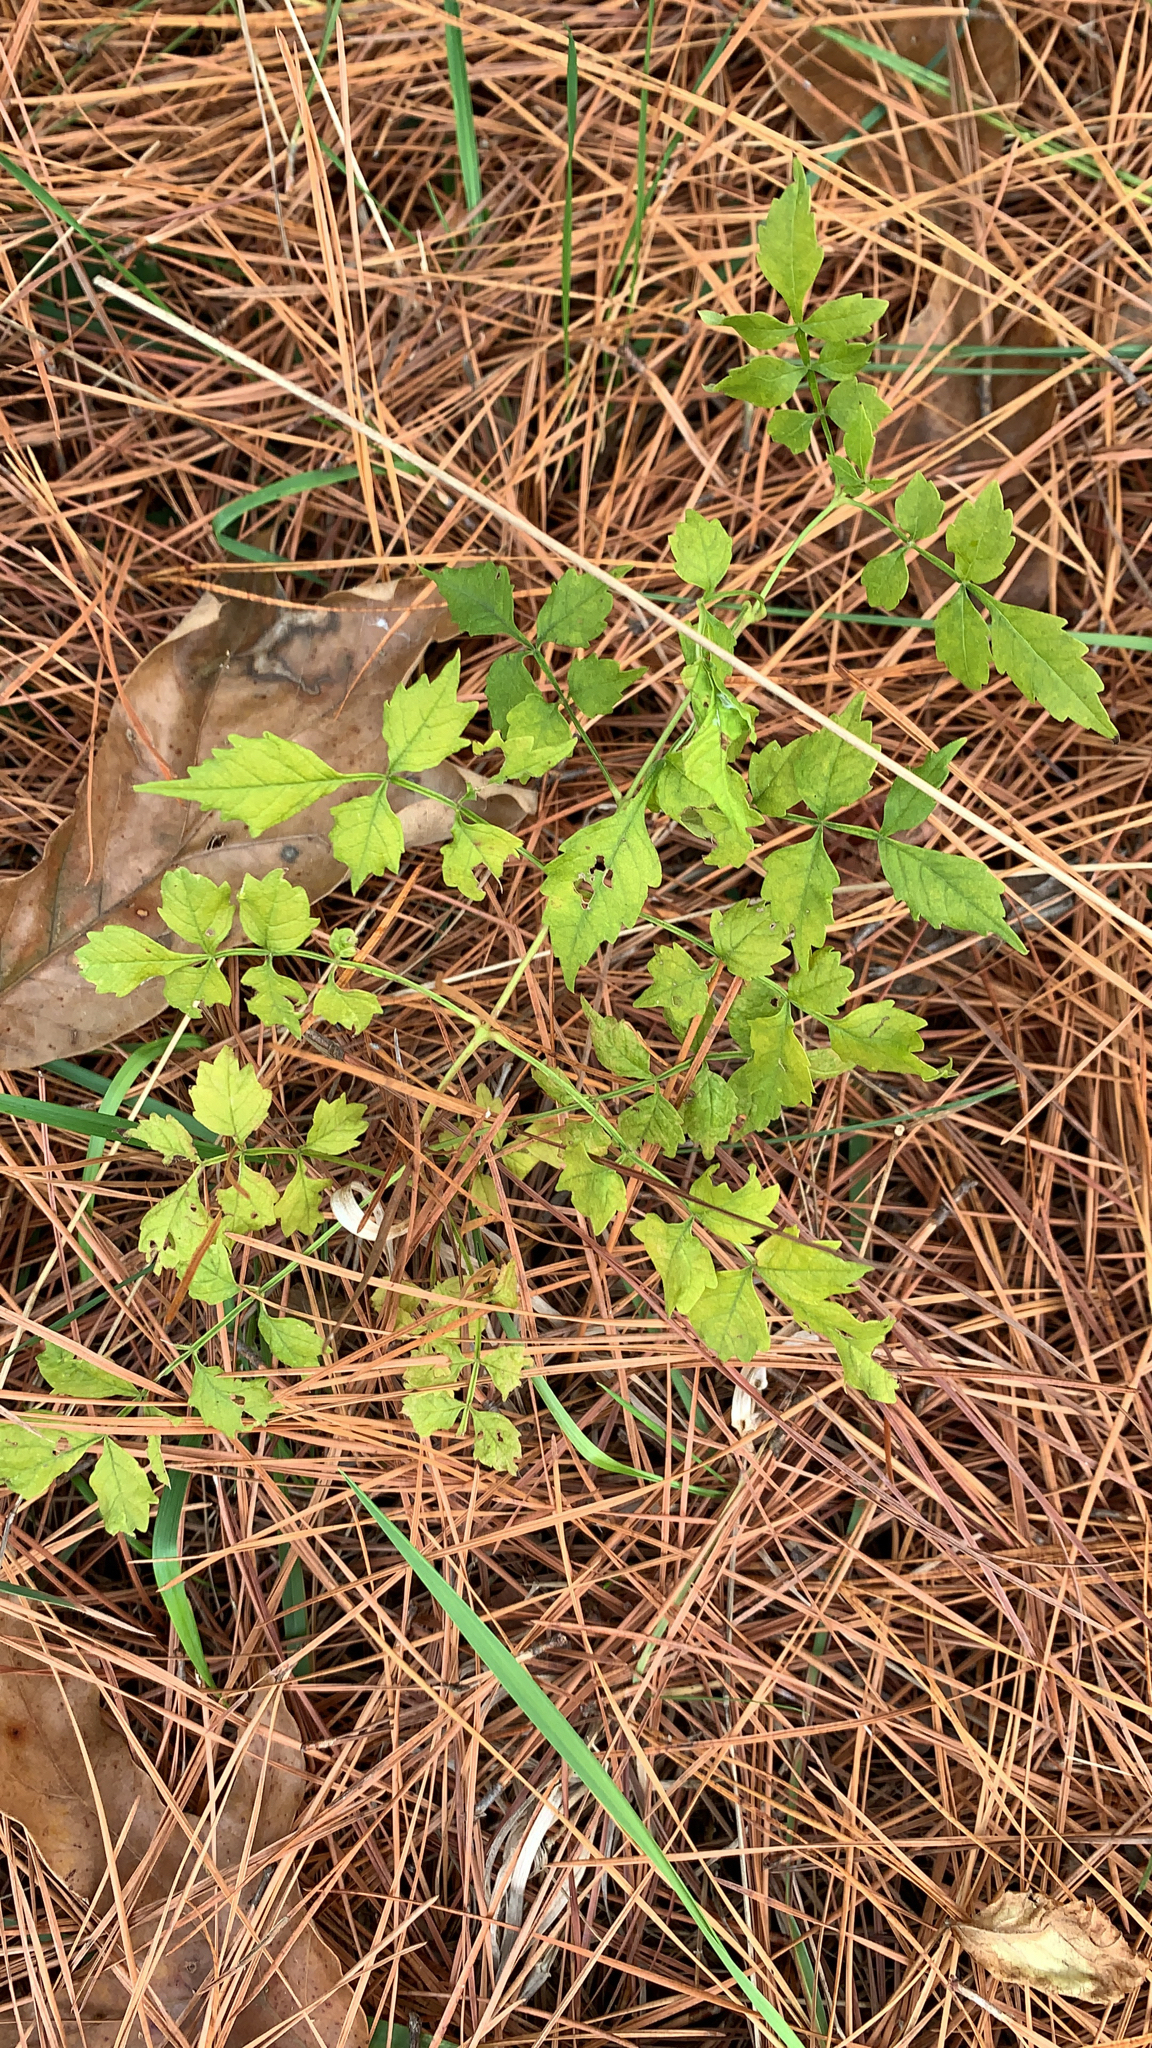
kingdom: Plantae
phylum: Tracheophyta
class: Magnoliopsida
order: Lamiales
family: Bignoniaceae
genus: Campsis
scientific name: Campsis radicans
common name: Trumpet-creeper
